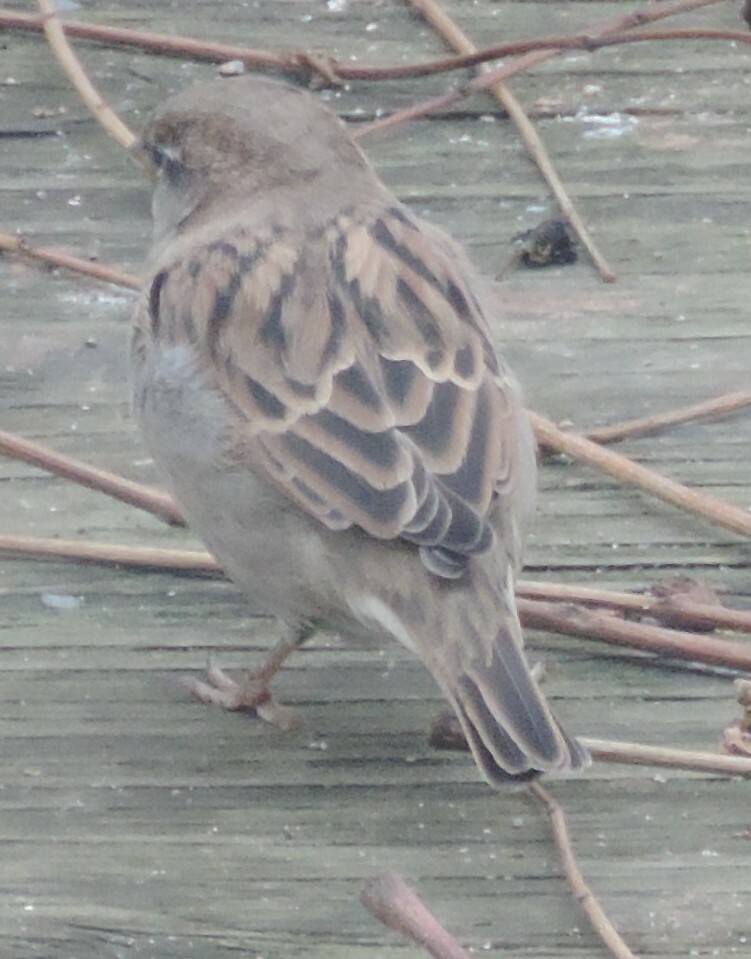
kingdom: Animalia
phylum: Chordata
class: Aves
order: Passeriformes
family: Passeridae
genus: Passer
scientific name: Passer domesticus
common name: House sparrow
